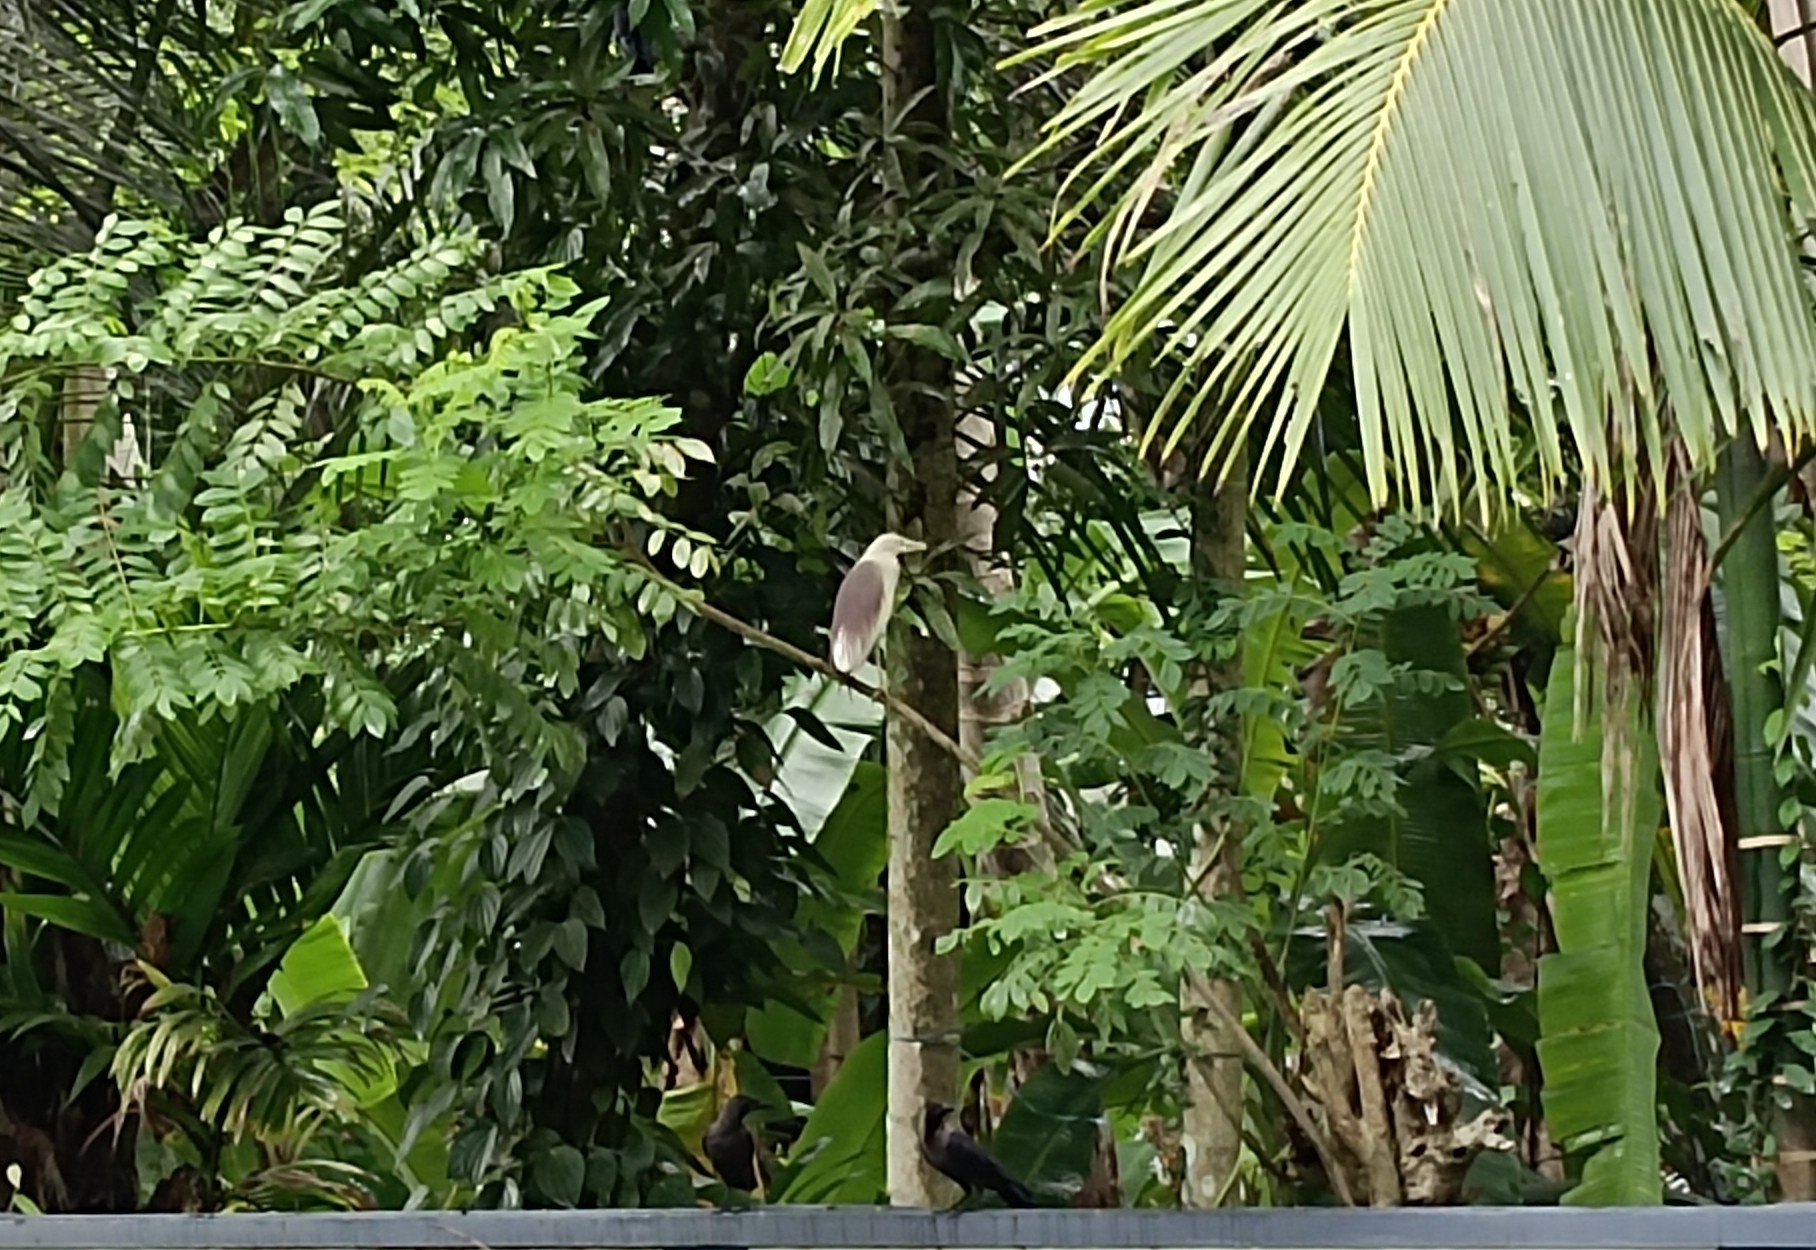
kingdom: Animalia
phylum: Chordata
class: Aves
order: Pelecaniformes
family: Ardeidae
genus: Ardeola
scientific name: Ardeola grayii
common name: Indian pond heron
